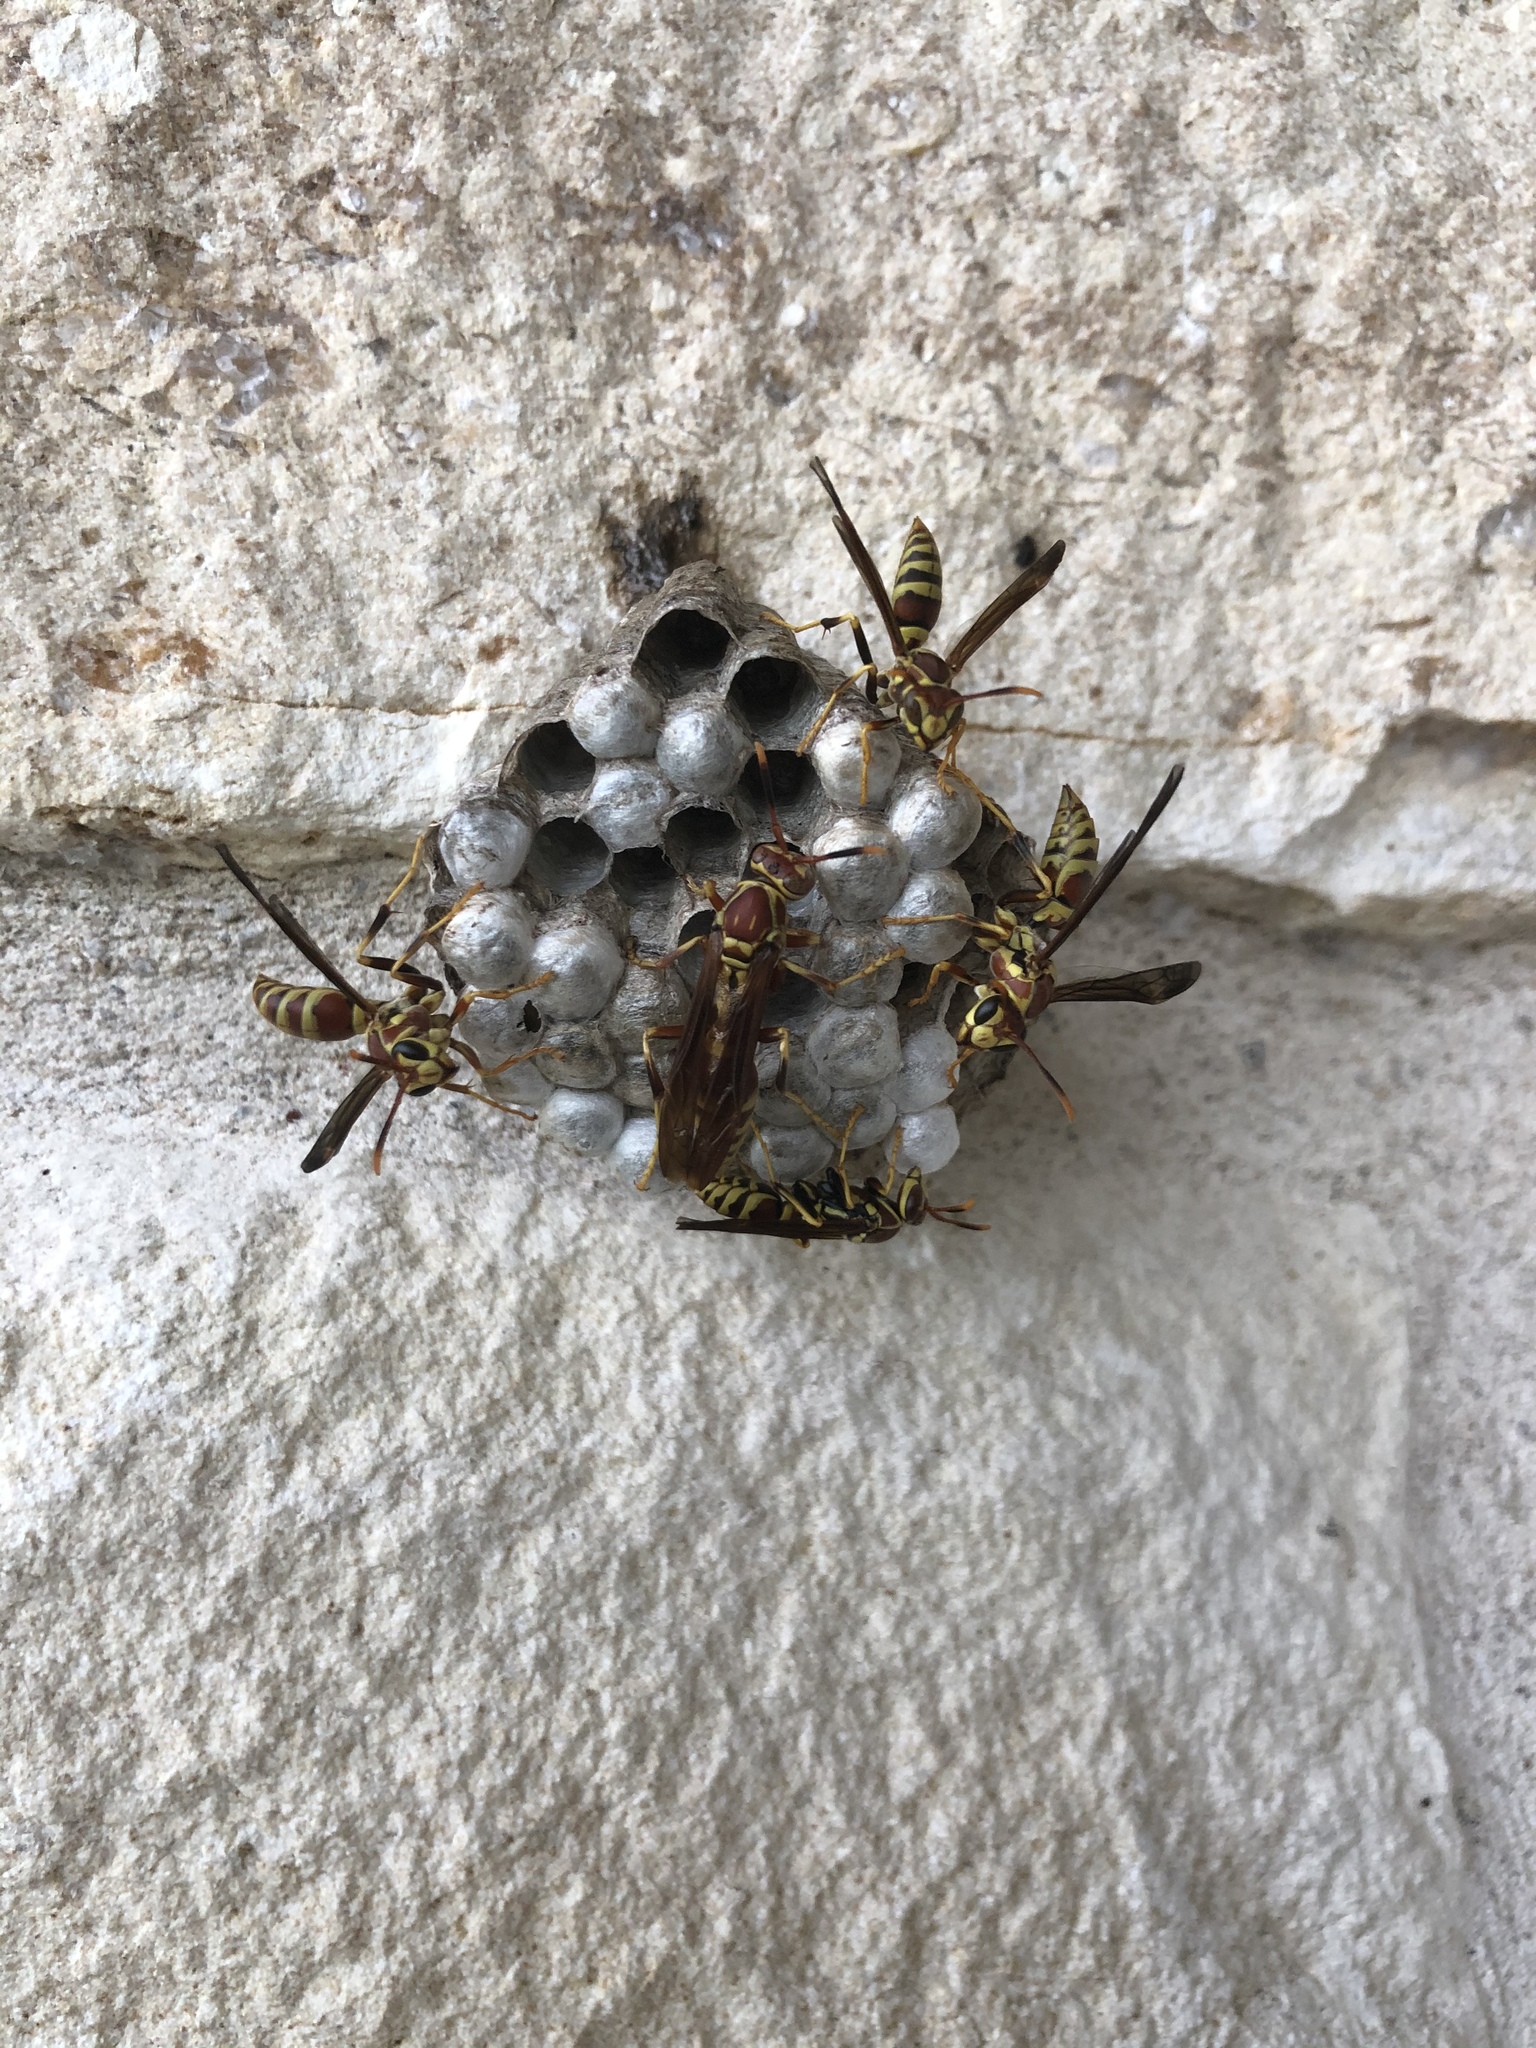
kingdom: Animalia
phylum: Arthropoda
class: Insecta
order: Hymenoptera
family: Eumenidae
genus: Polistes
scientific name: Polistes exclamans
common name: Paper wasp
